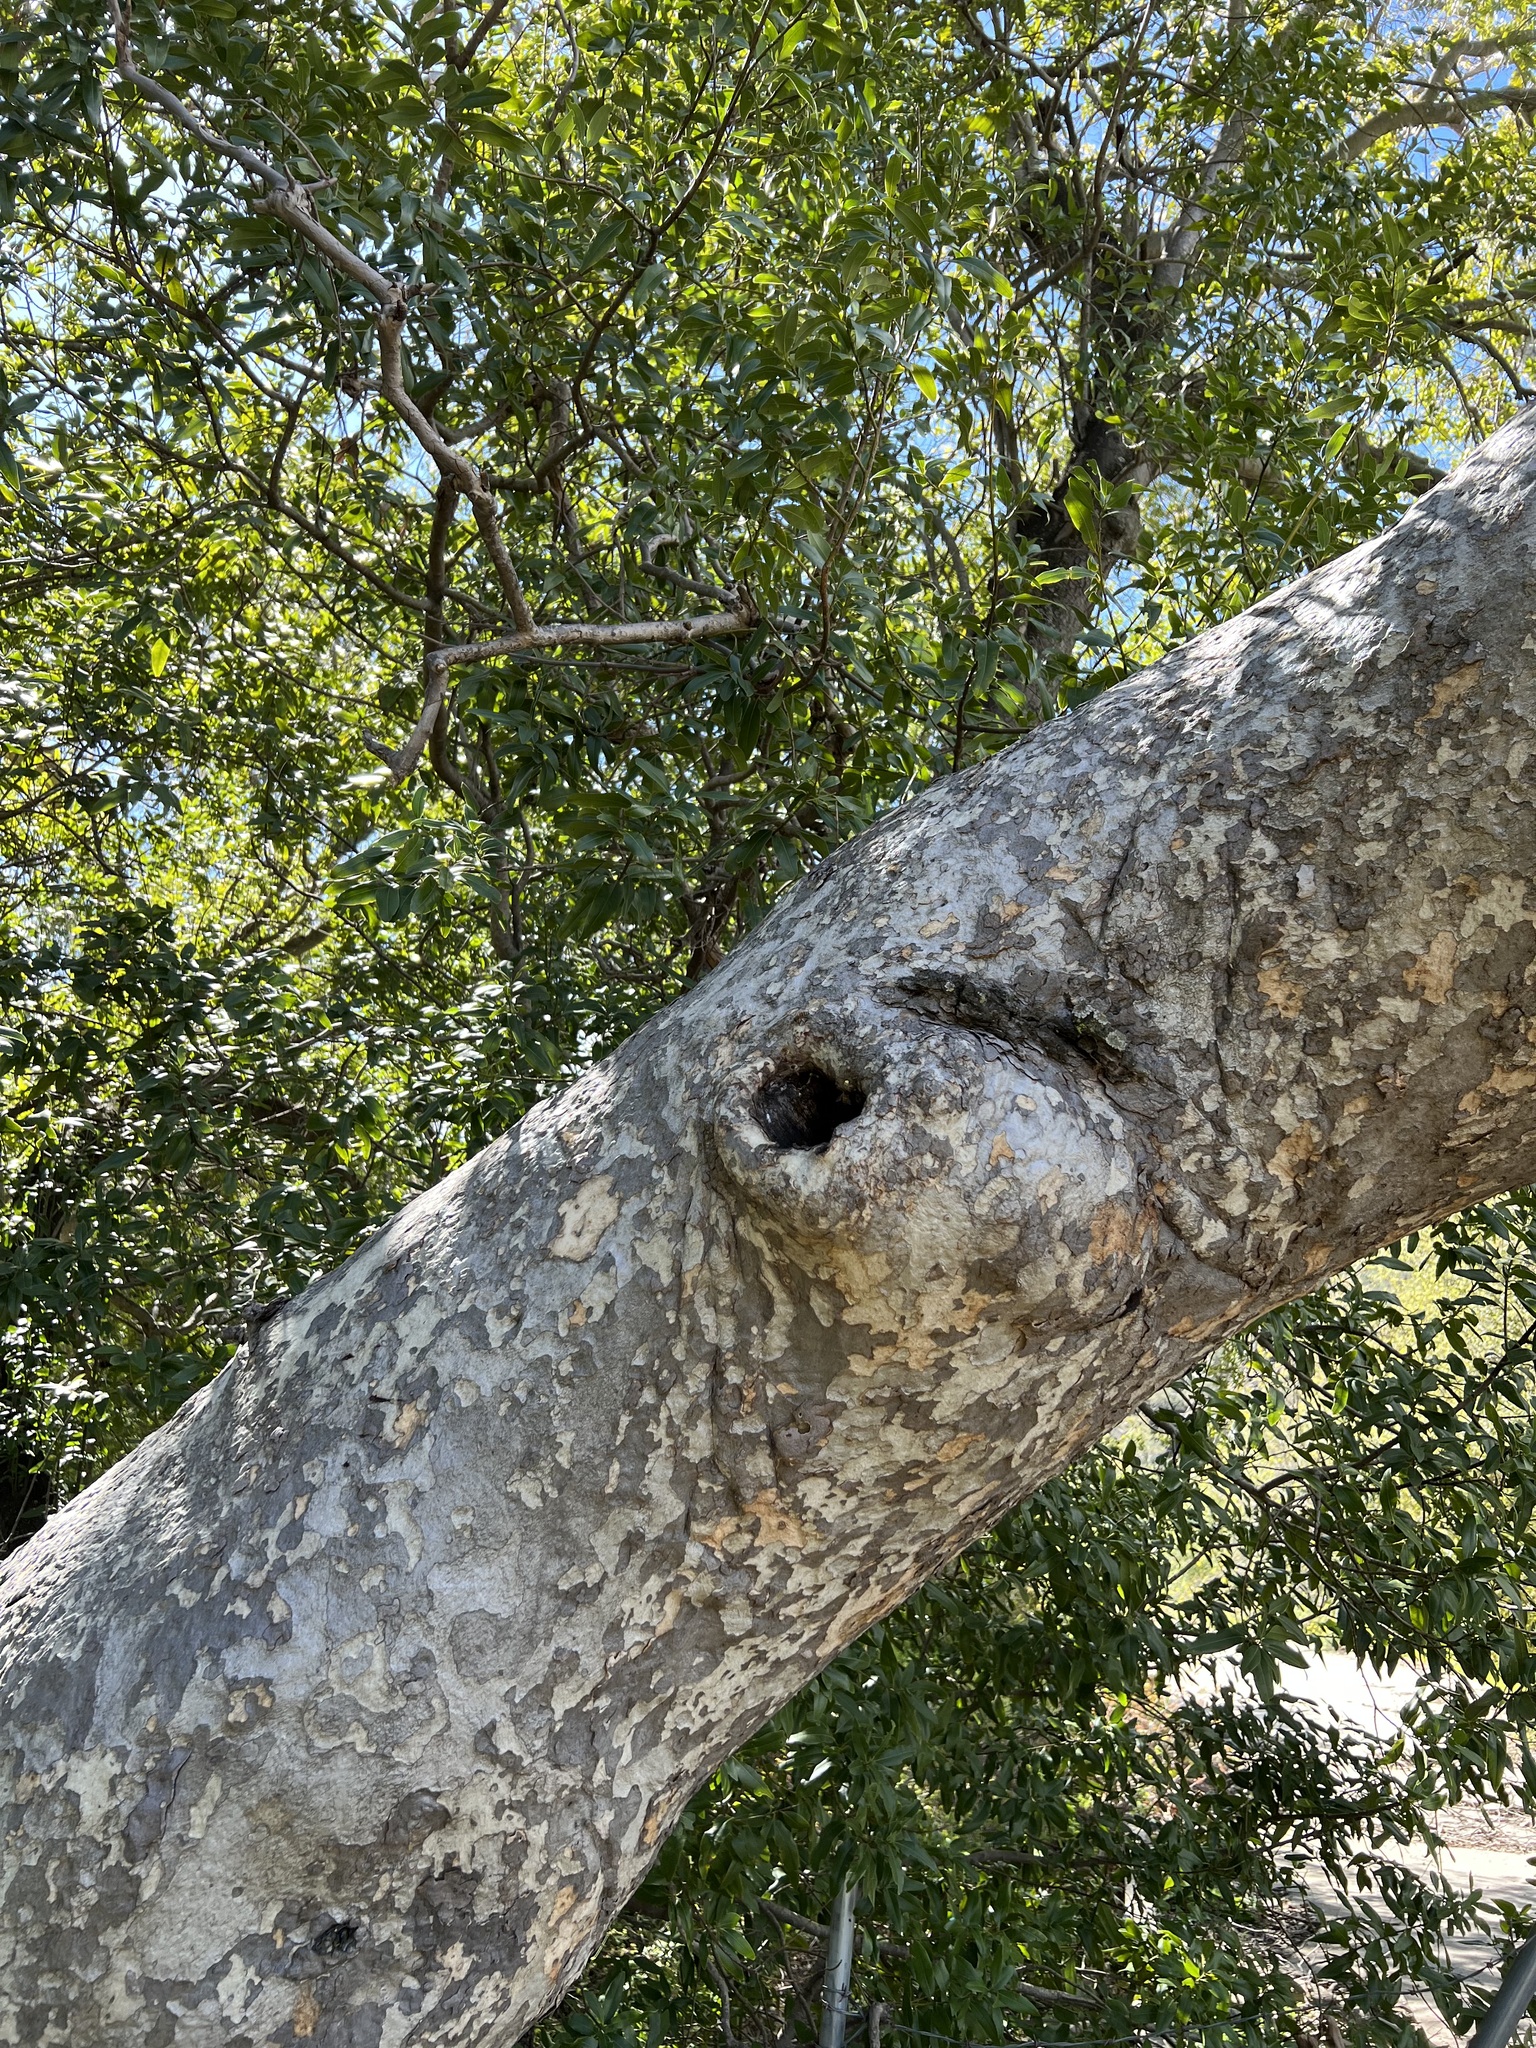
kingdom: Animalia
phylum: Arthropoda
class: Insecta
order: Hymenoptera
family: Apidae
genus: Apis
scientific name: Apis mellifera
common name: Honey bee
